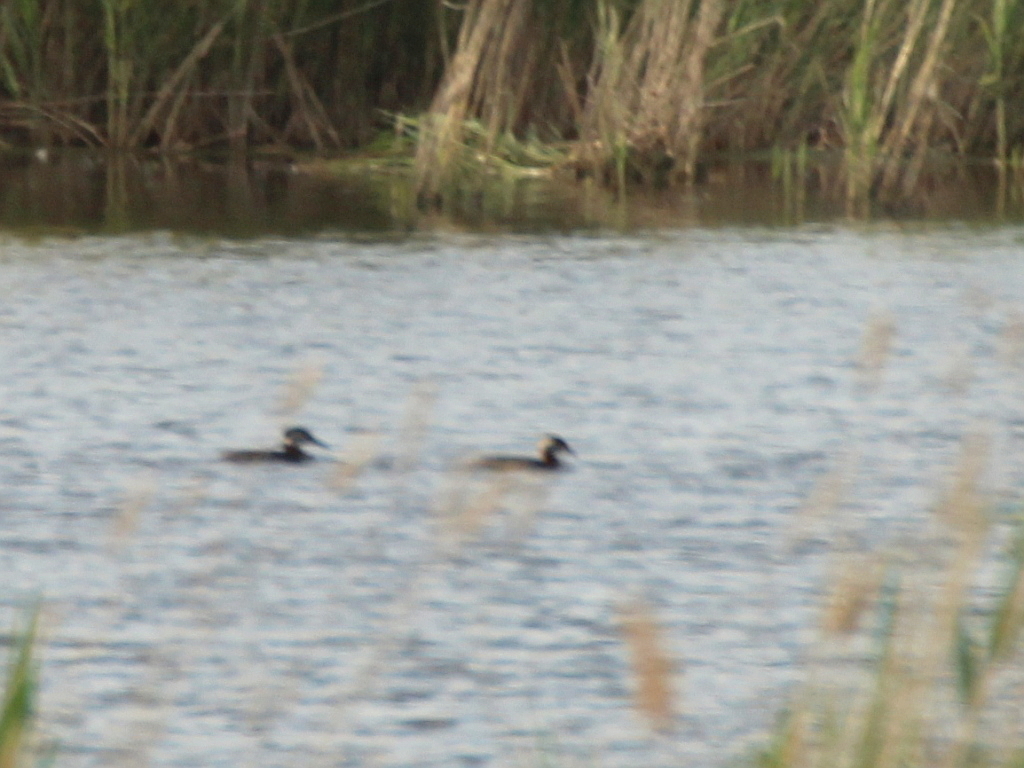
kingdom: Animalia
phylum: Chordata
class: Aves
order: Podicipediformes
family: Podicipedidae
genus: Podiceps
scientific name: Podiceps grisegena
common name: Red-necked grebe
